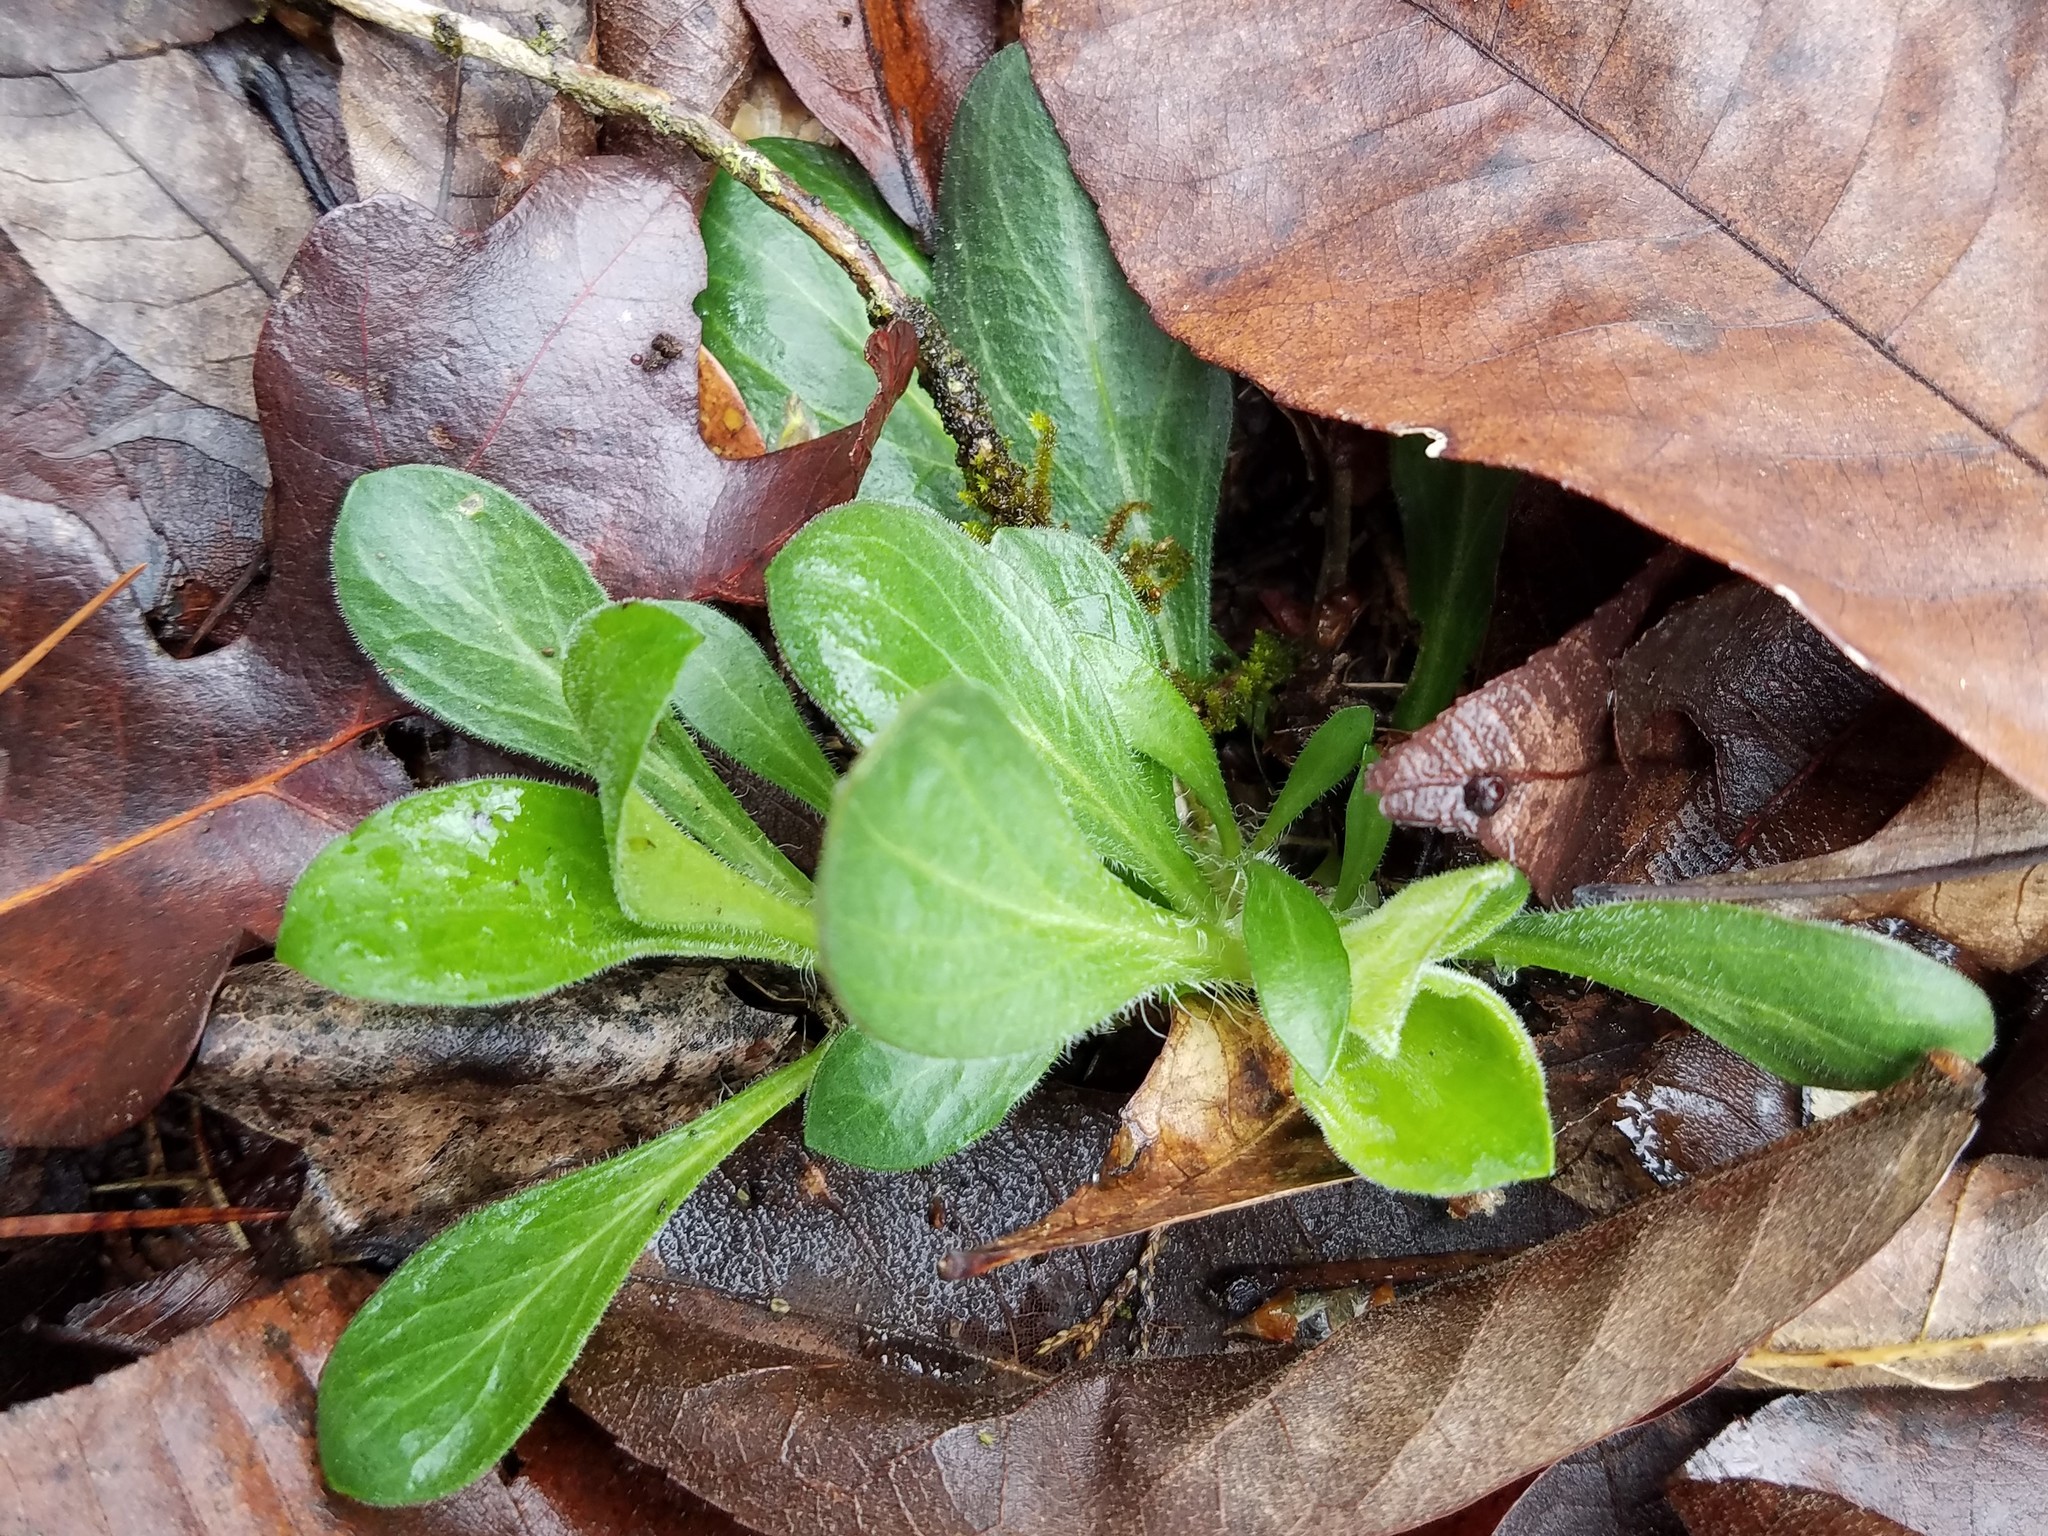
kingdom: Plantae
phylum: Tracheophyta
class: Magnoliopsida
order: Asterales
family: Asteraceae
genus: Erigeron
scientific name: Erigeron pulchellus
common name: Hairy fleabane
